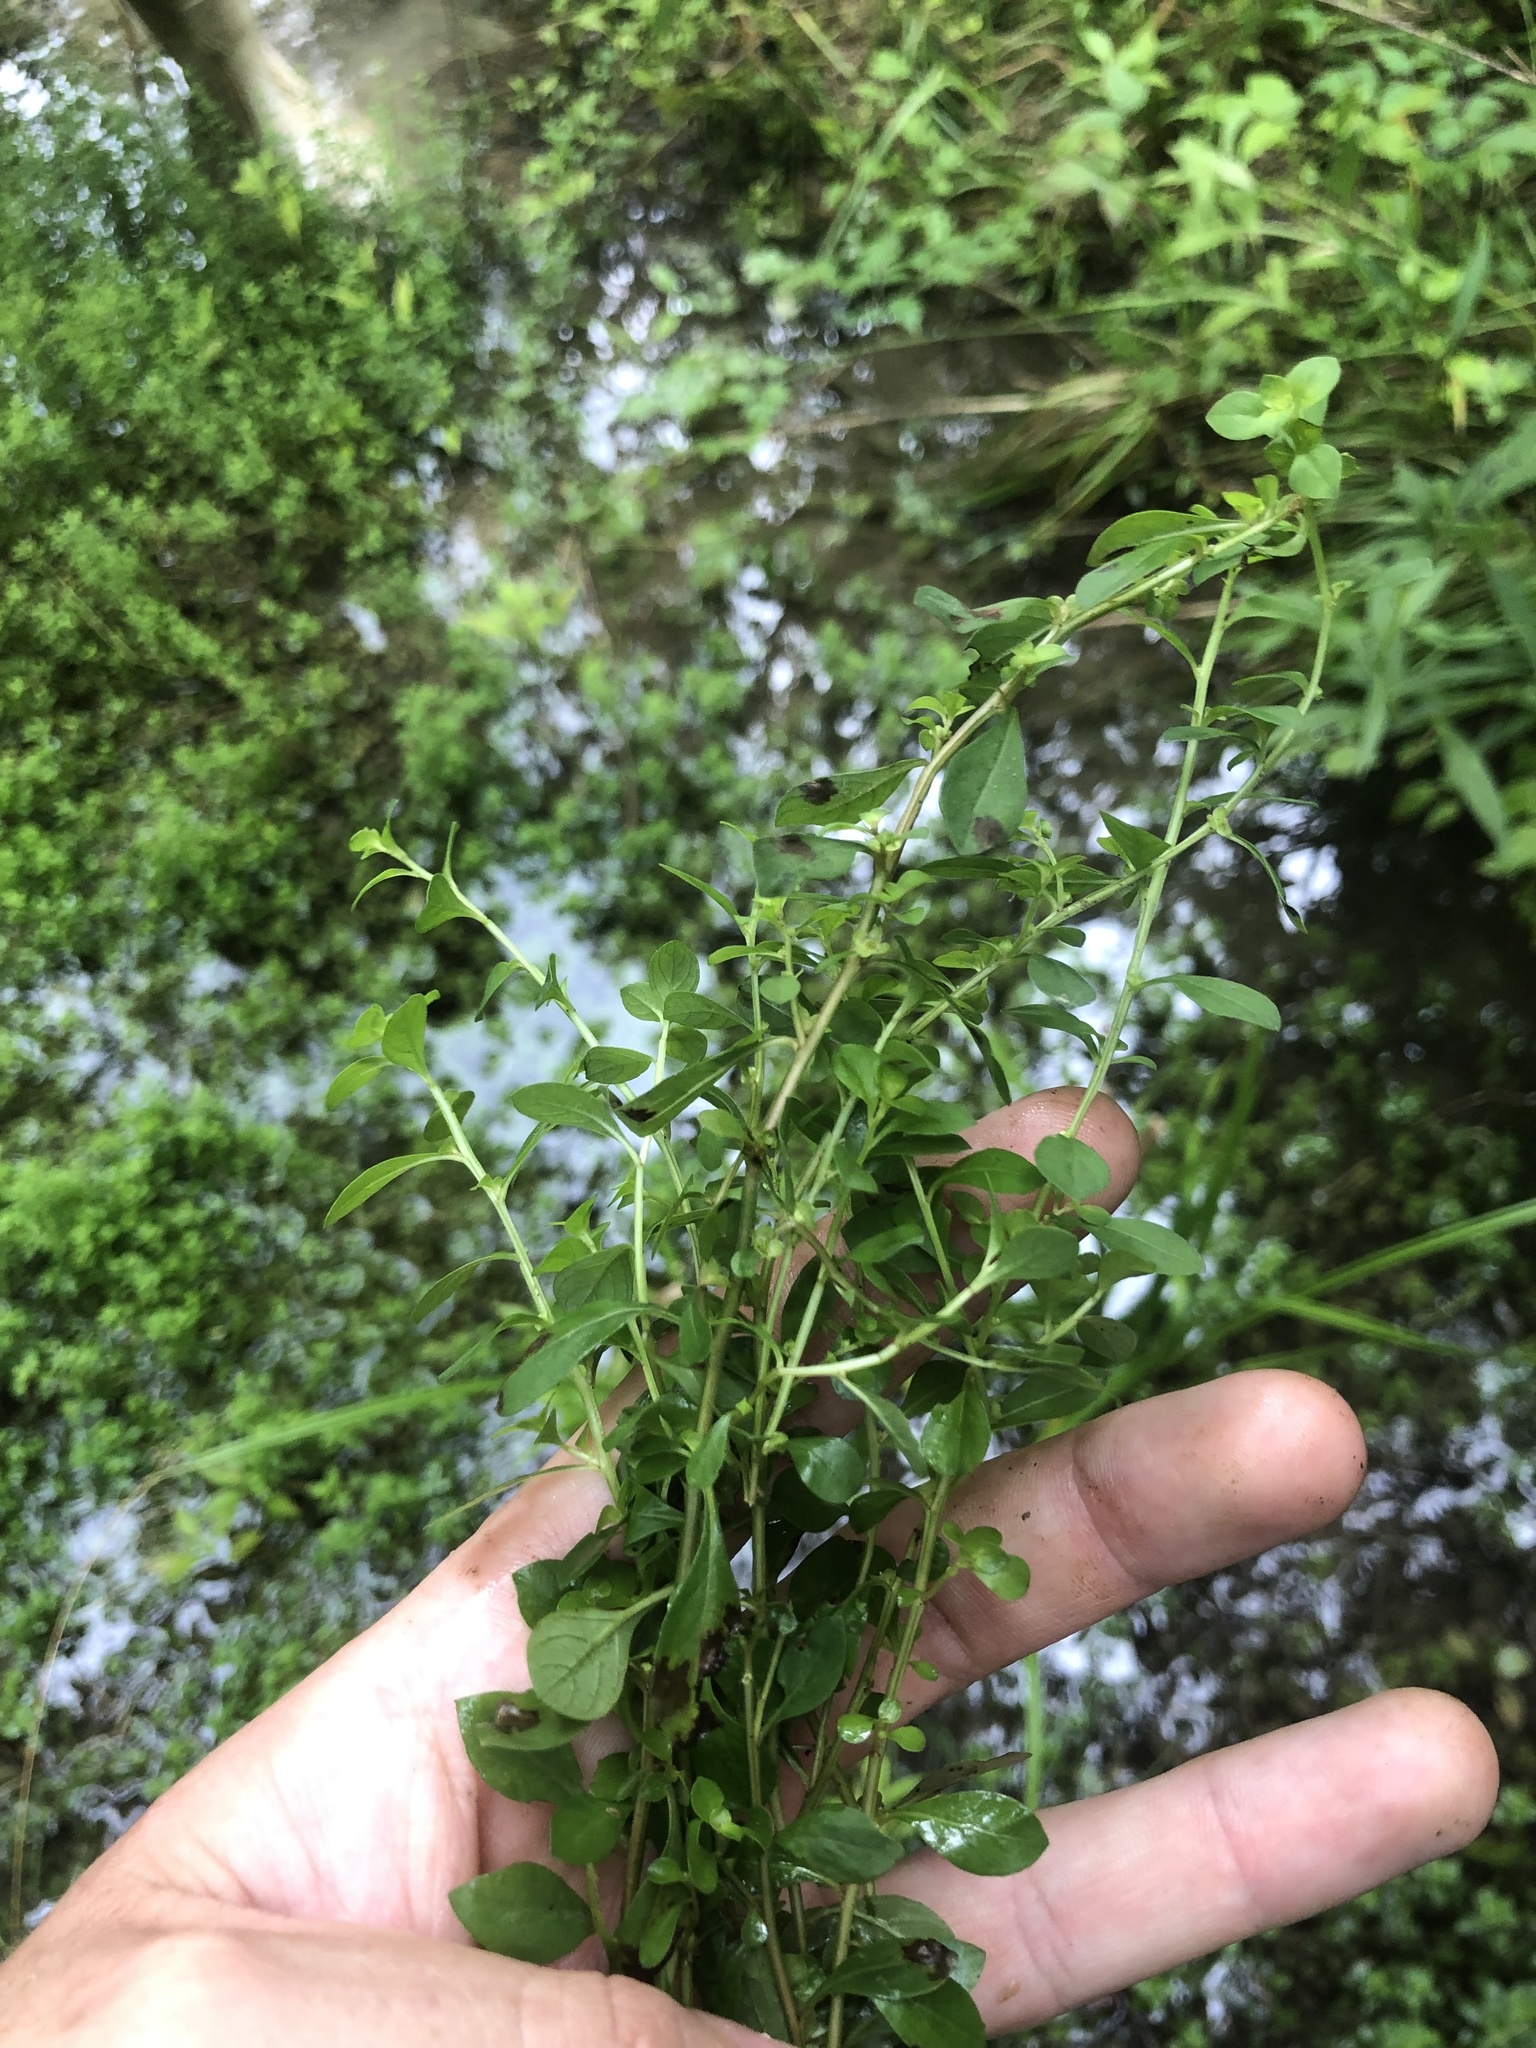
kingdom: Plantae
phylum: Tracheophyta
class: Magnoliopsida
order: Myrtales
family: Onagraceae
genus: Ludwigia
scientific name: Ludwigia microcarpa
